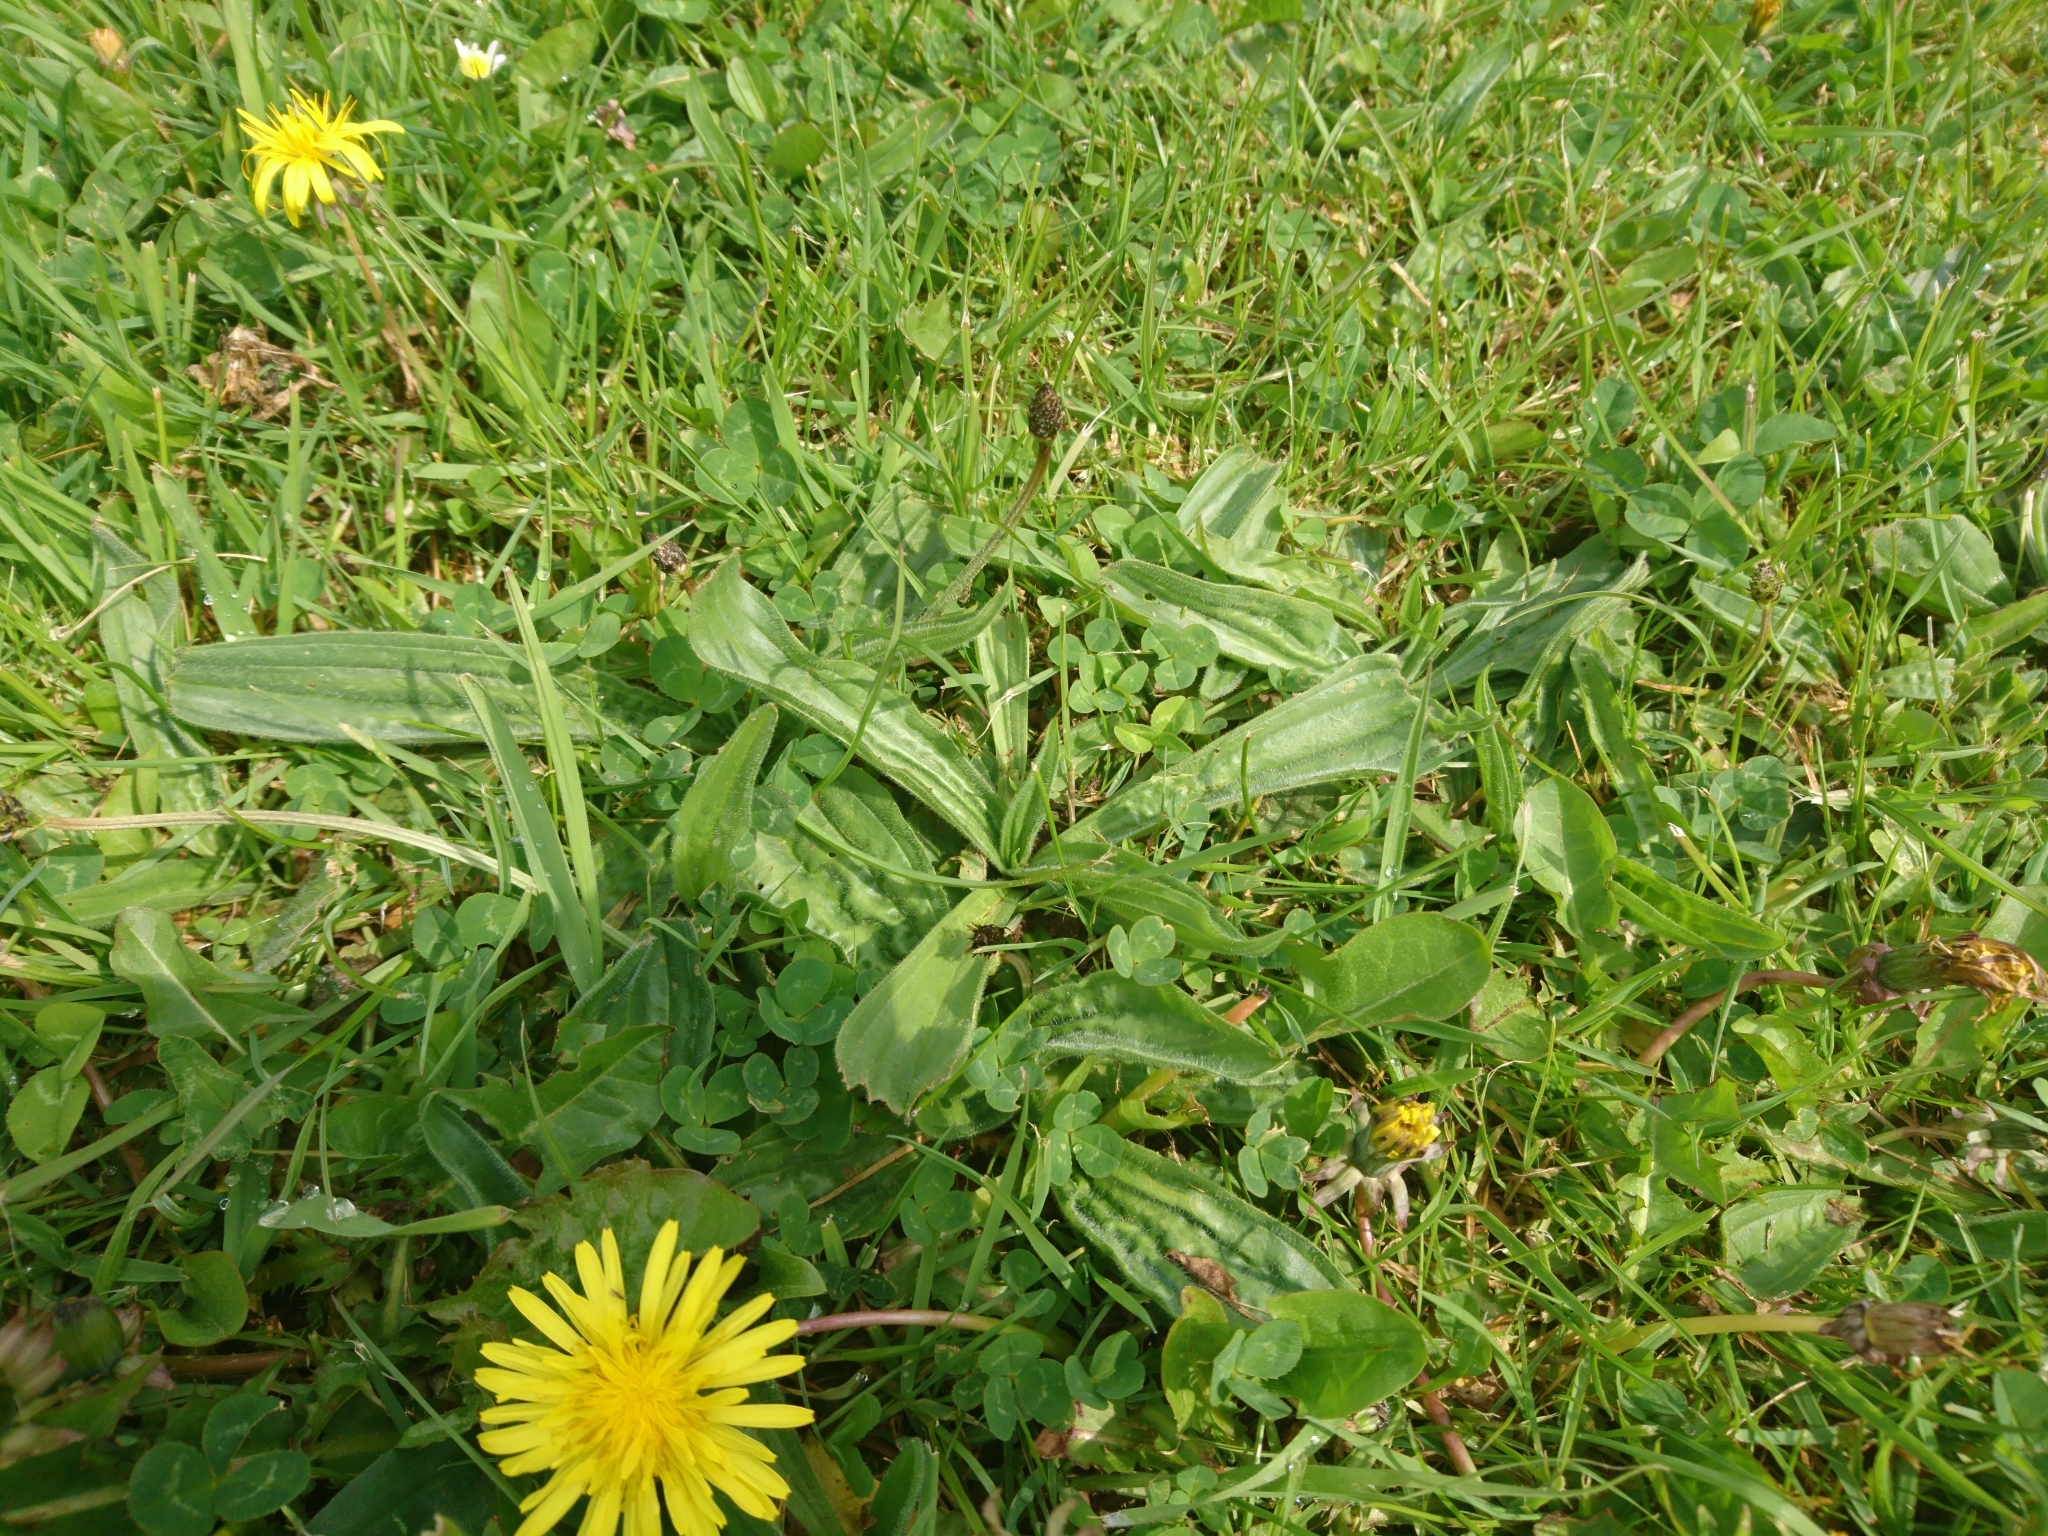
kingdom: Plantae
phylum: Tracheophyta
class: Magnoliopsida
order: Lamiales
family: Plantaginaceae
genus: Plantago
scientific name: Plantago lanceolata
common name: Ribwort plantain
